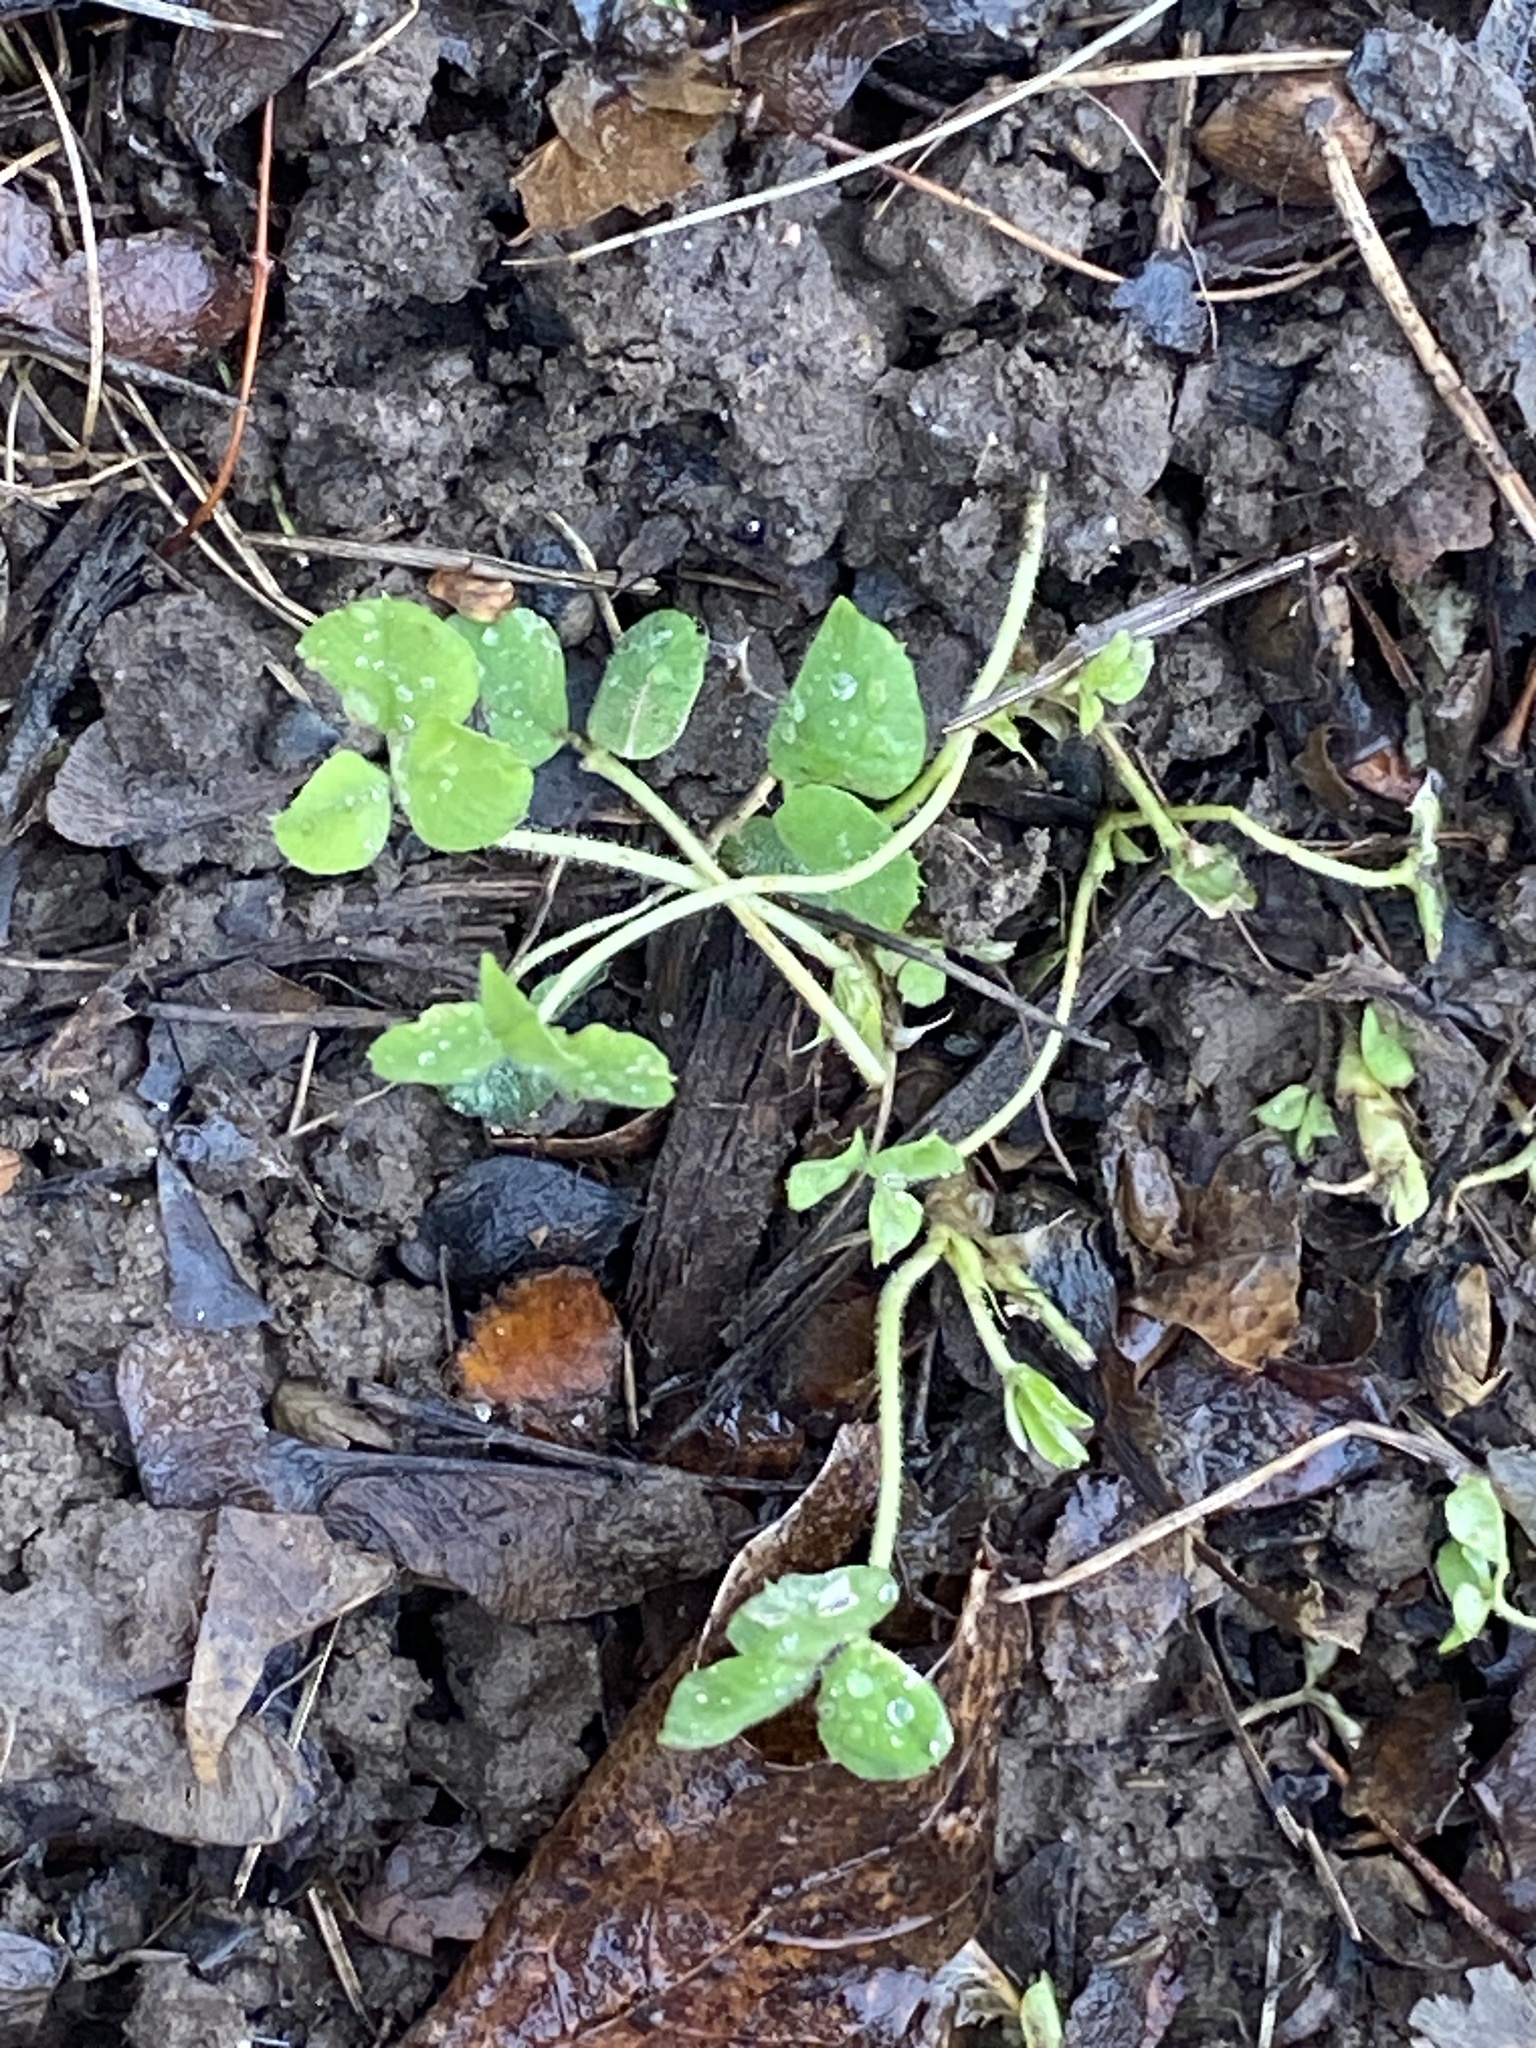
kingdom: Plantae
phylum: Tracheophyta
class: Magnoliopsida
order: Fabales
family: Fabaceae
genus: Medicago
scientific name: Medicago lupulina
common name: Black medick
